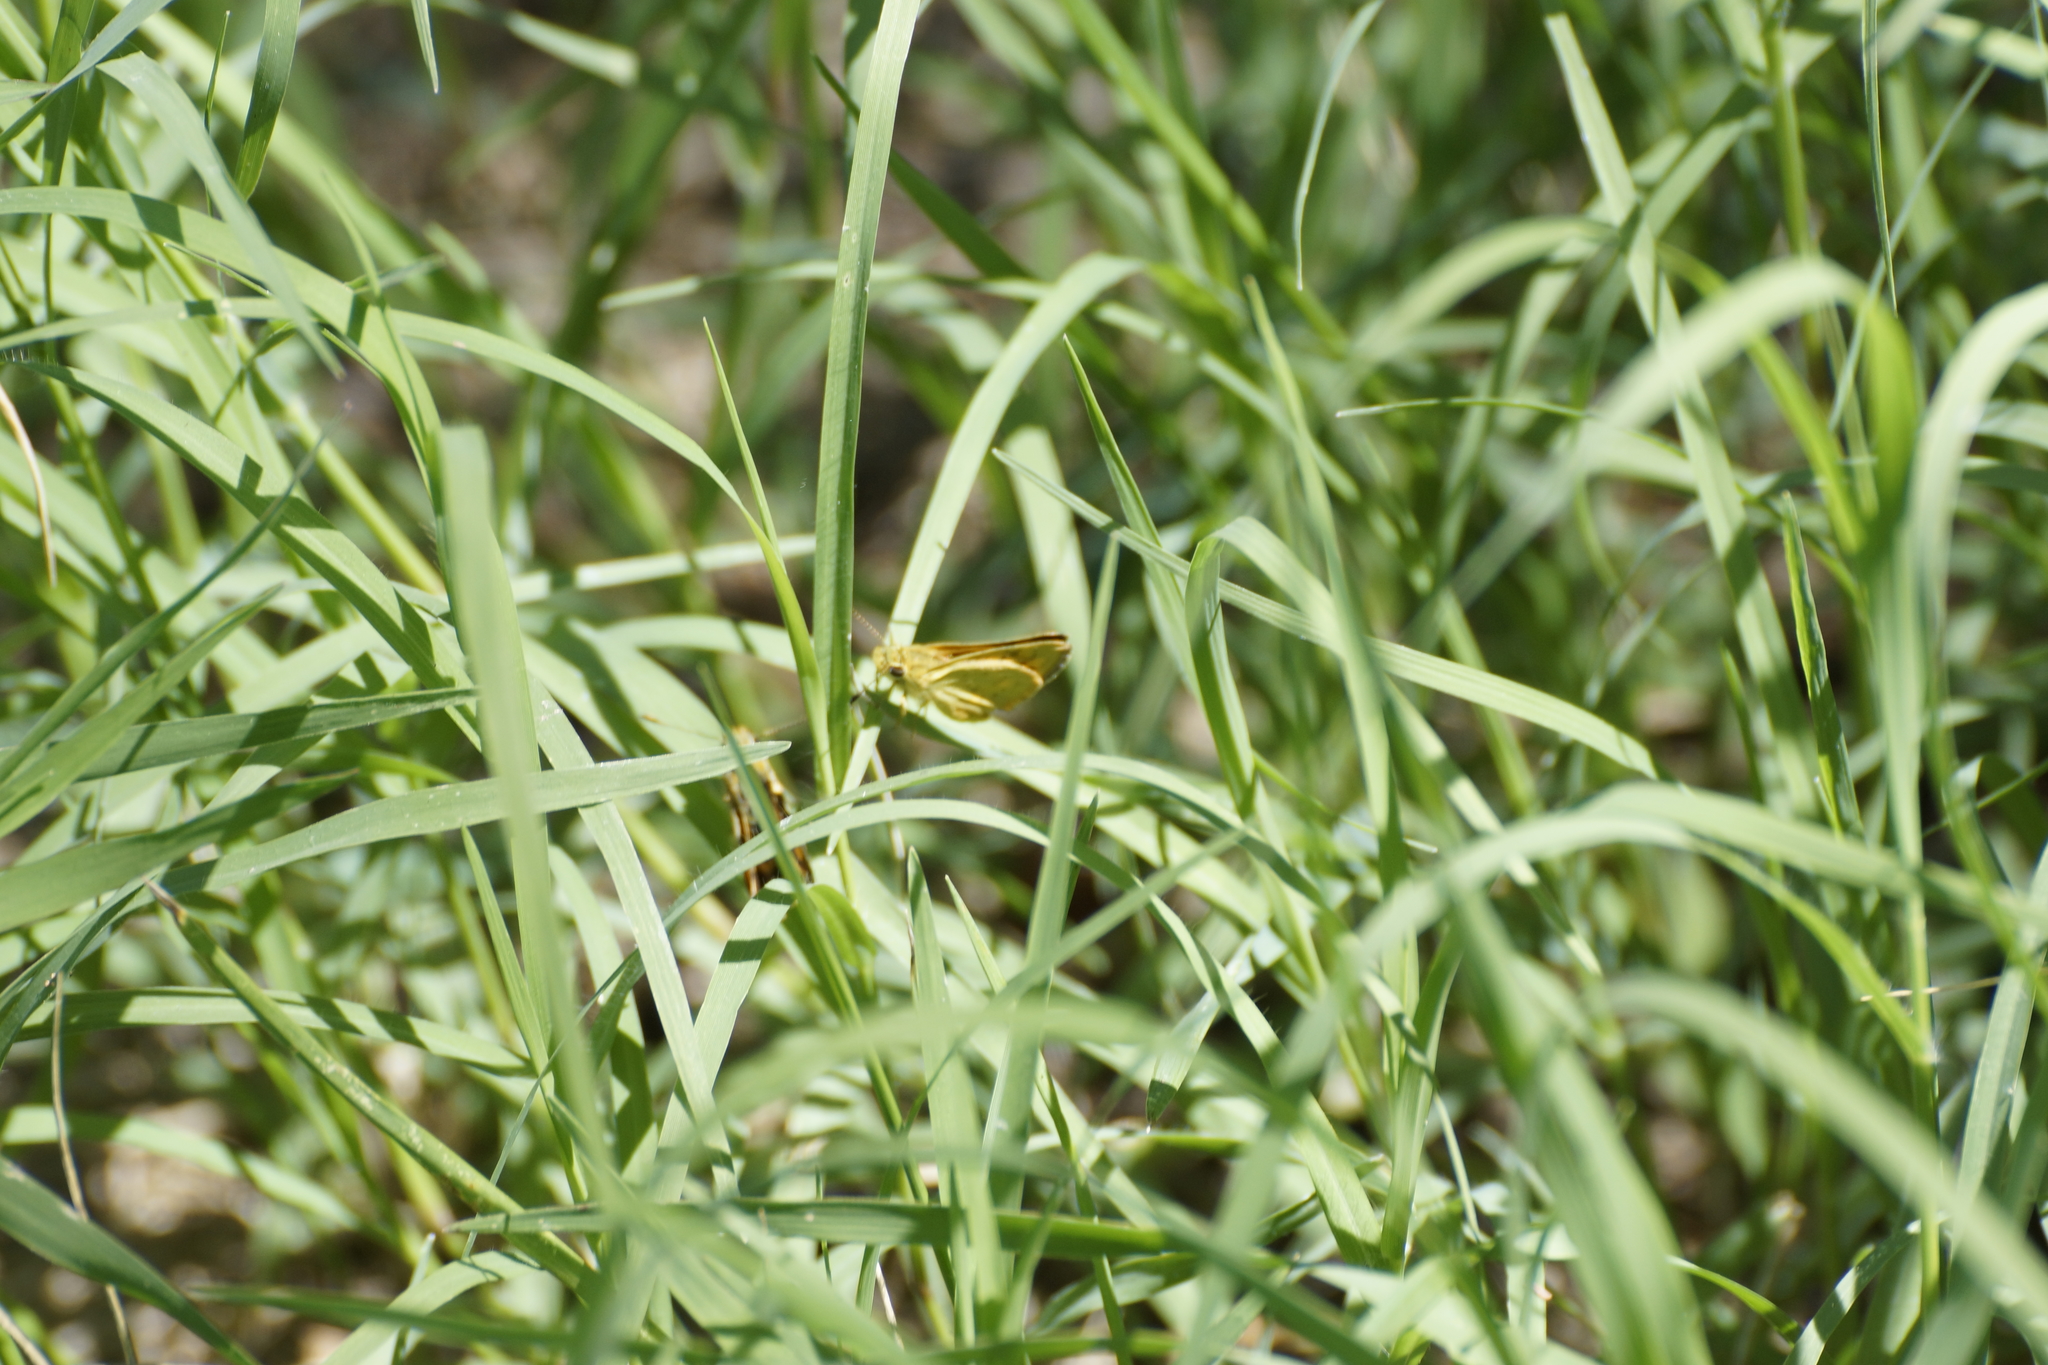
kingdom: Animalia
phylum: Arthropoda
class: Insecta
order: Lepidoptera
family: Hesperiidae
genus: Ocybadistes
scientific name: Ocybadistes walkeri
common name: Yellow-banded dart
